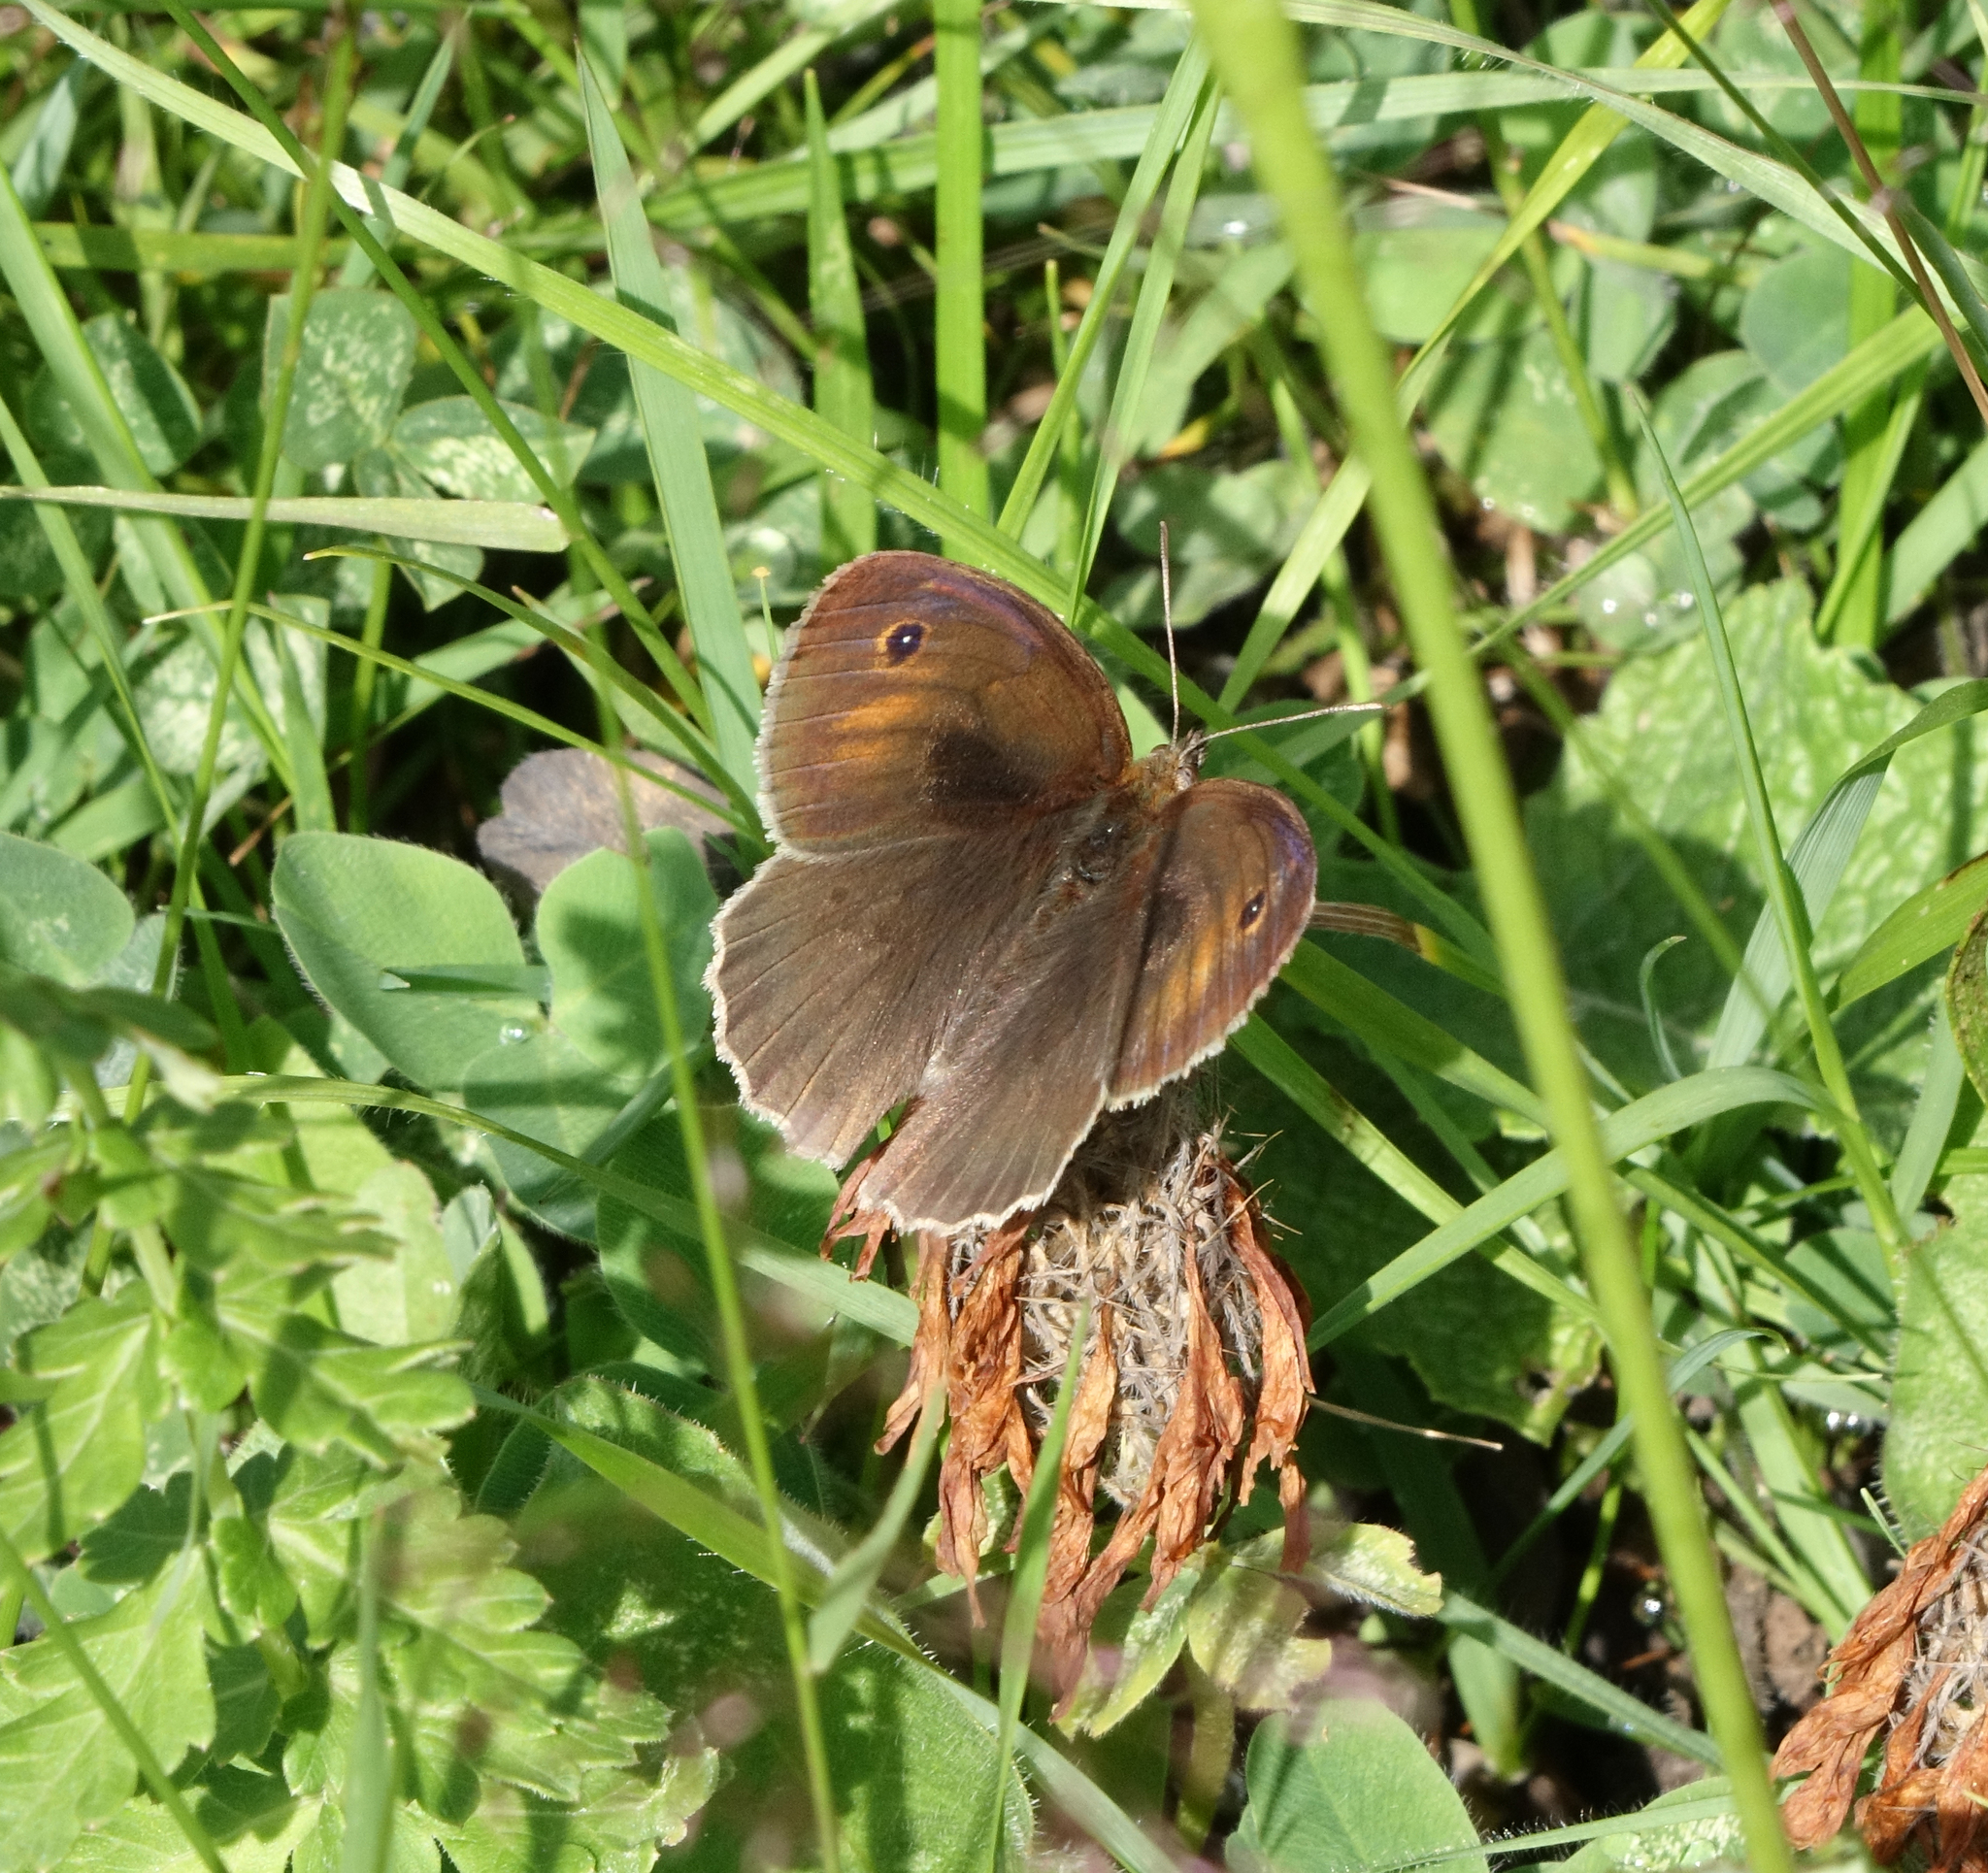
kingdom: Animalia
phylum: Arthropoda
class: Insecta
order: Lepidoptera
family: Nymphalidae
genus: Maniola
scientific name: Maniola jurtina
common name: Meadow brown
